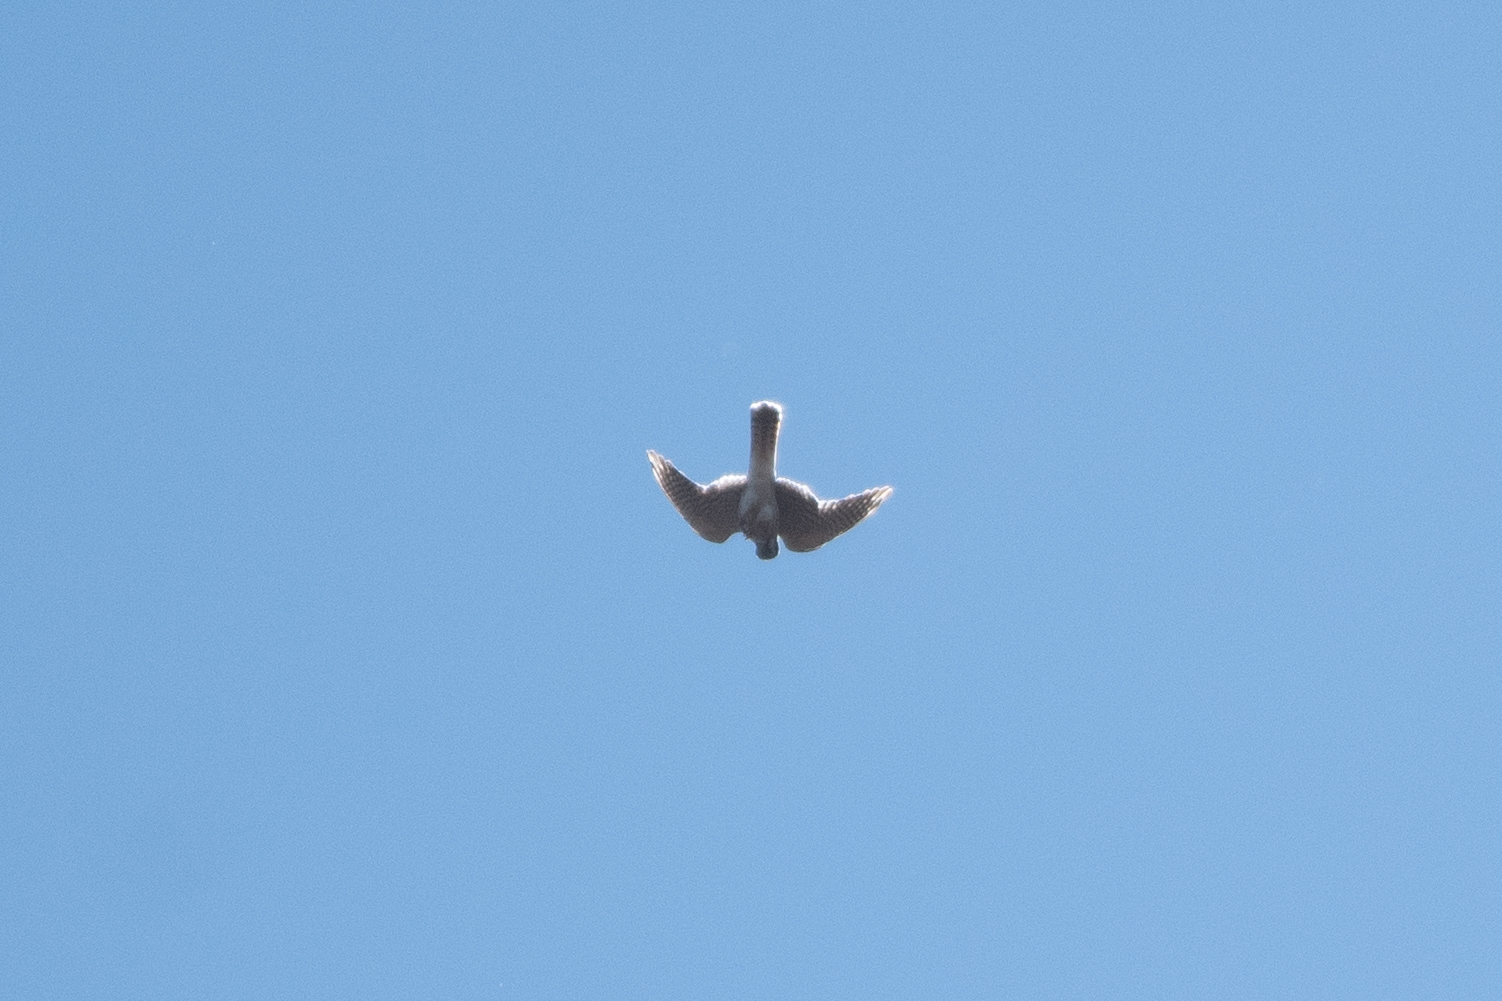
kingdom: Animalia
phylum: Chordata
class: Aves
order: Falconiformes
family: Falconidae
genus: Falco
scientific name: Falco sparverius
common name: American kestrel
